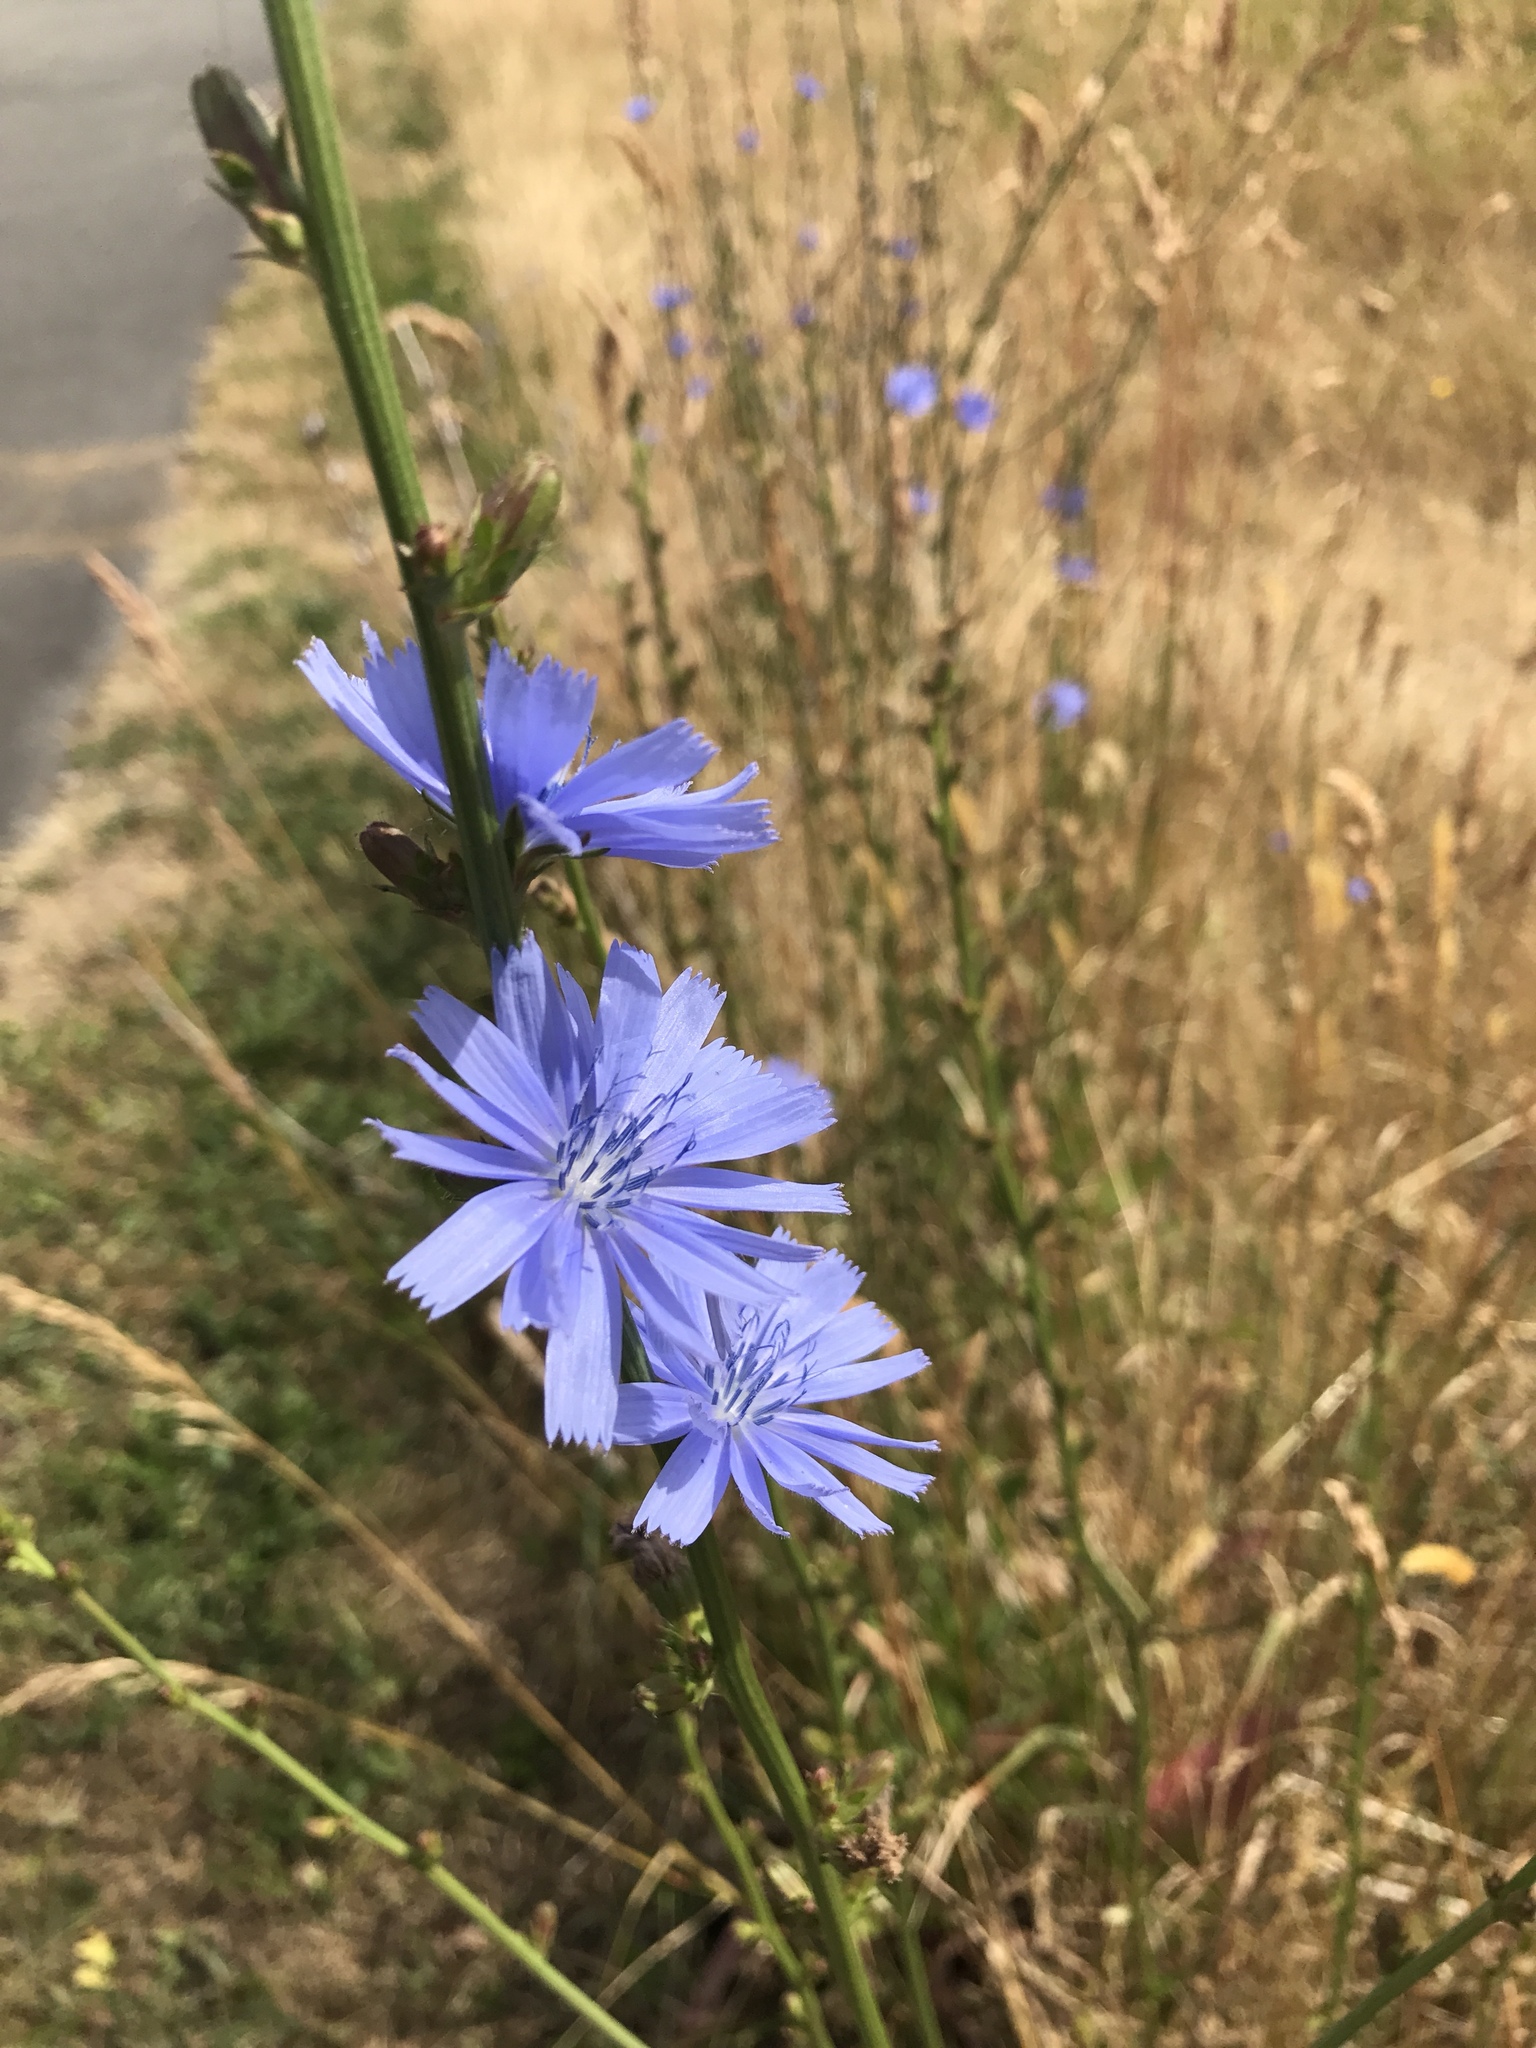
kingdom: Plantae
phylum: Tracheophyta
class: Magnoliopsida
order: Asterales
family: Asteraceae
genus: Cichorium
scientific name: Cichorium intybus
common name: Chicory
